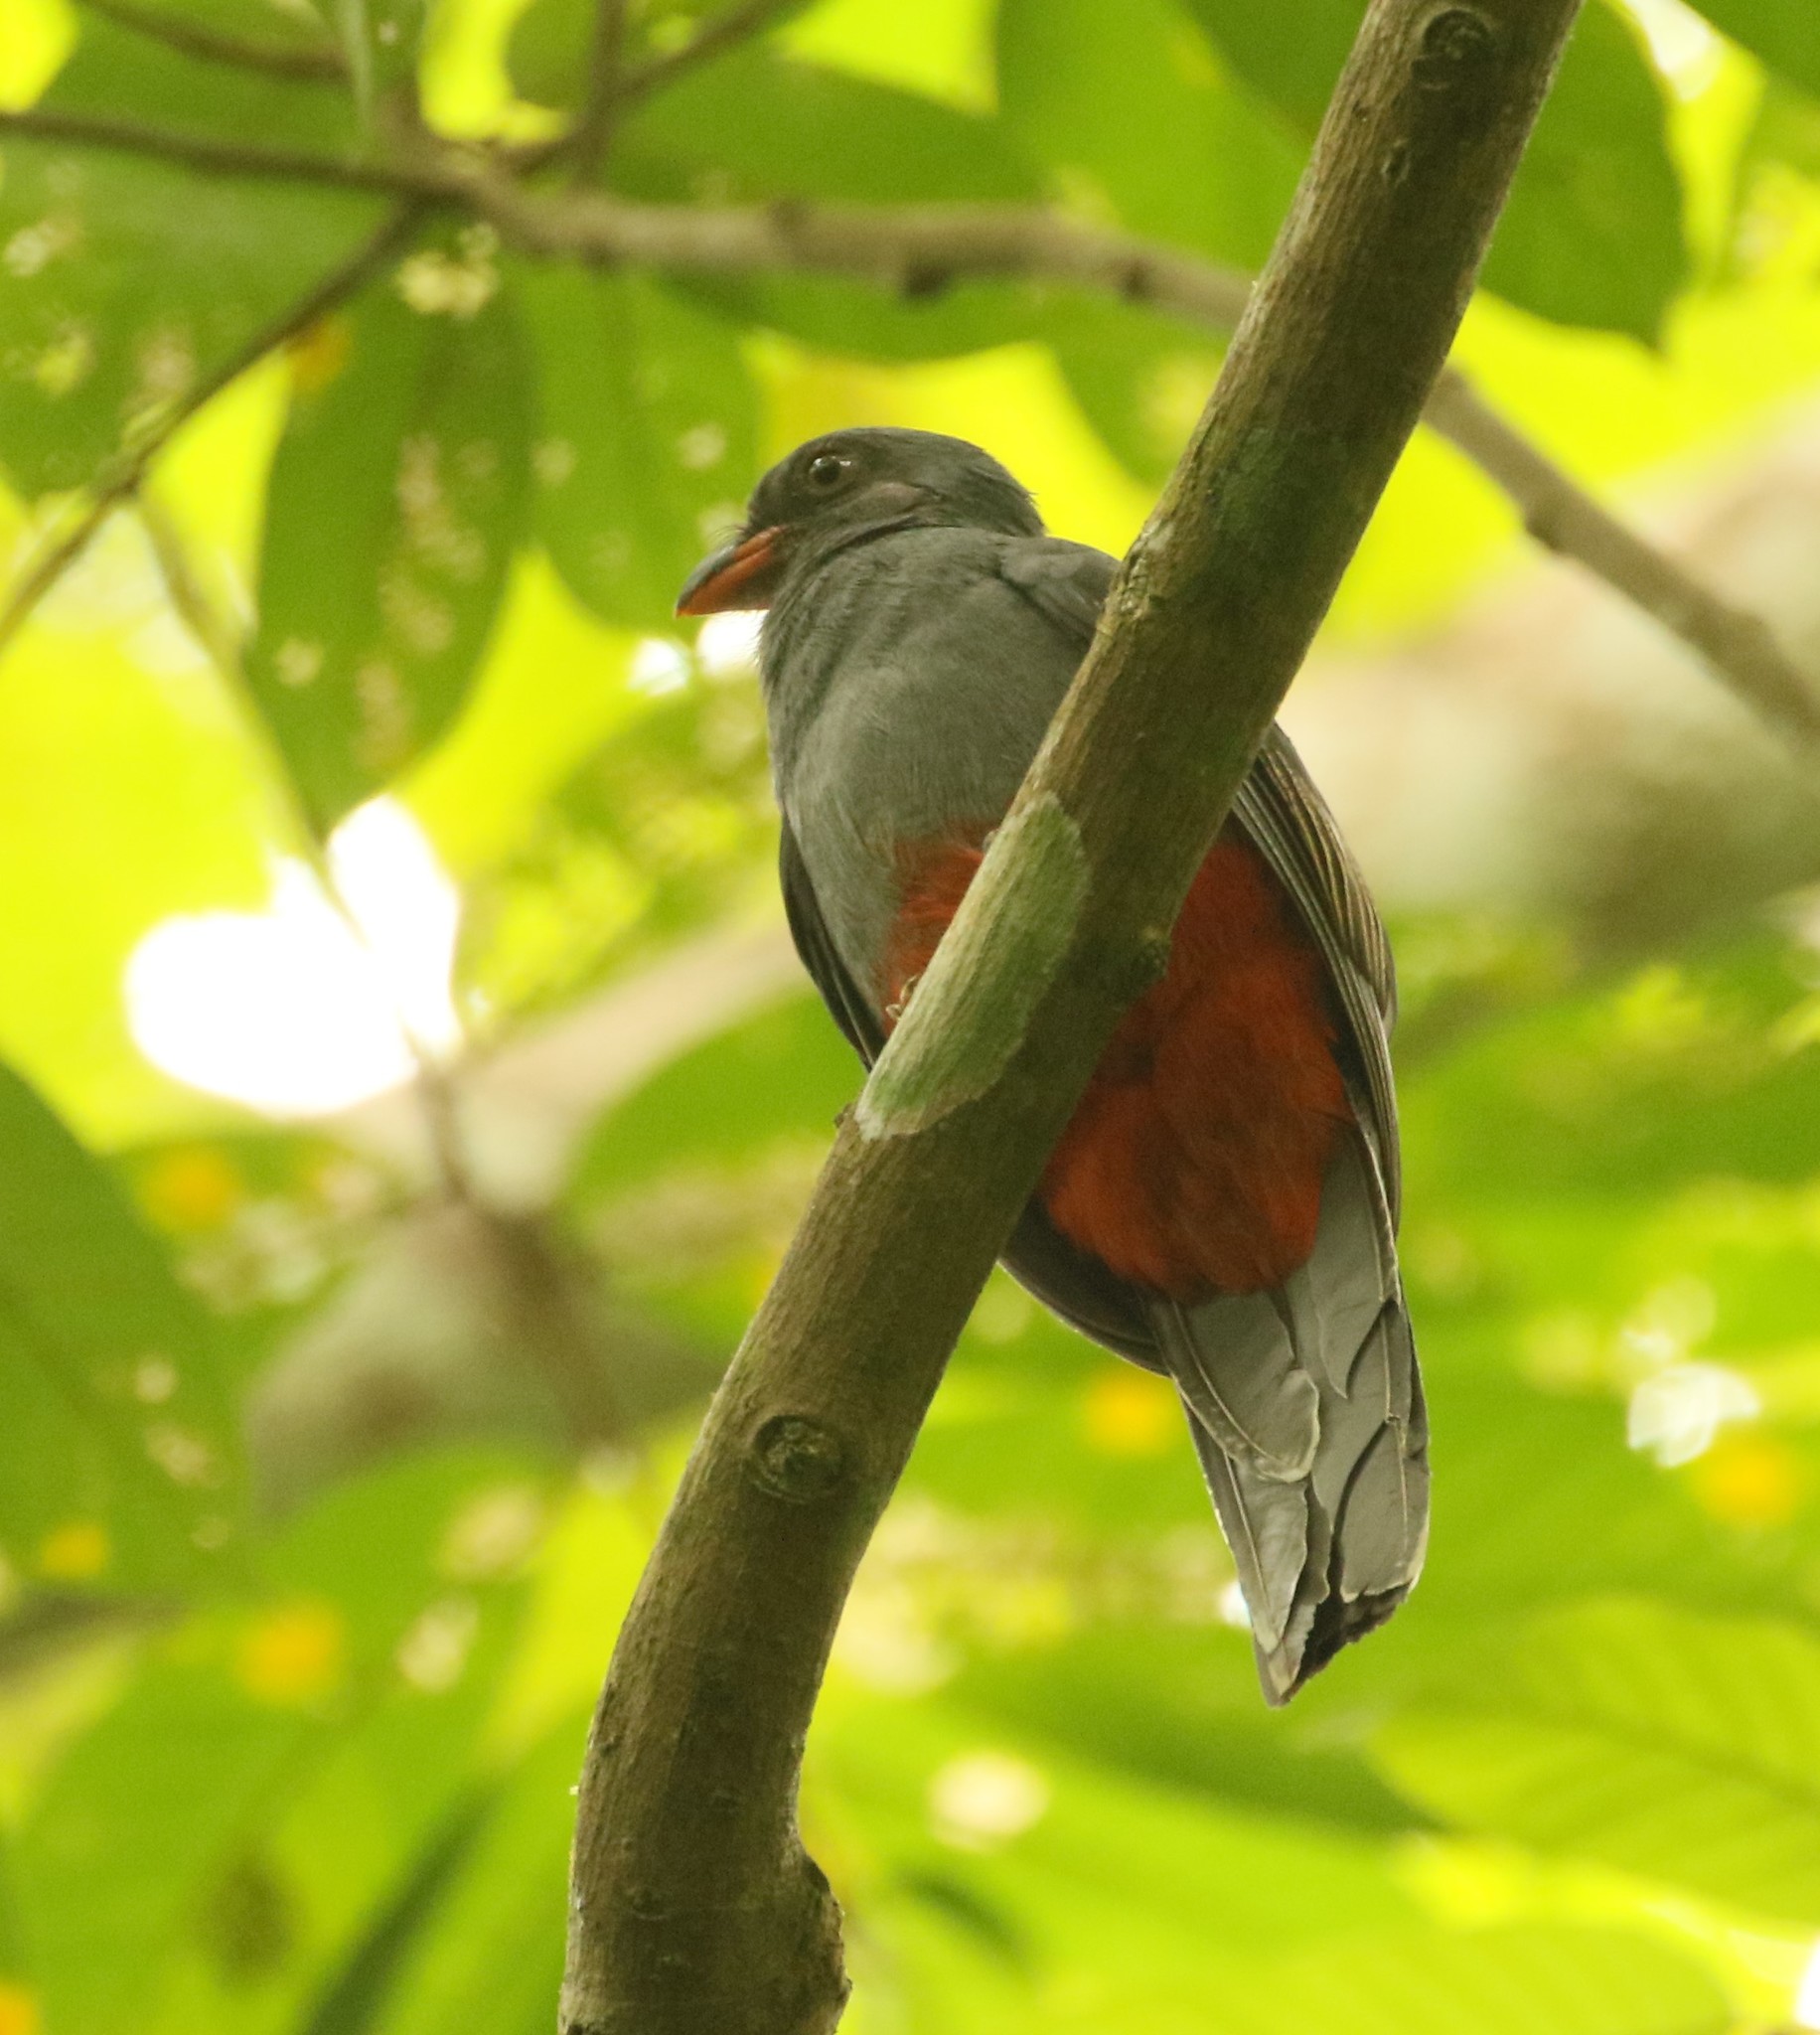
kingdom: Animalia
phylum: Chordata
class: Aves
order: Trogoniformes
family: Trogonidae
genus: Trogon
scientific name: Trogon massena
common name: Slaty-tailed trogon
